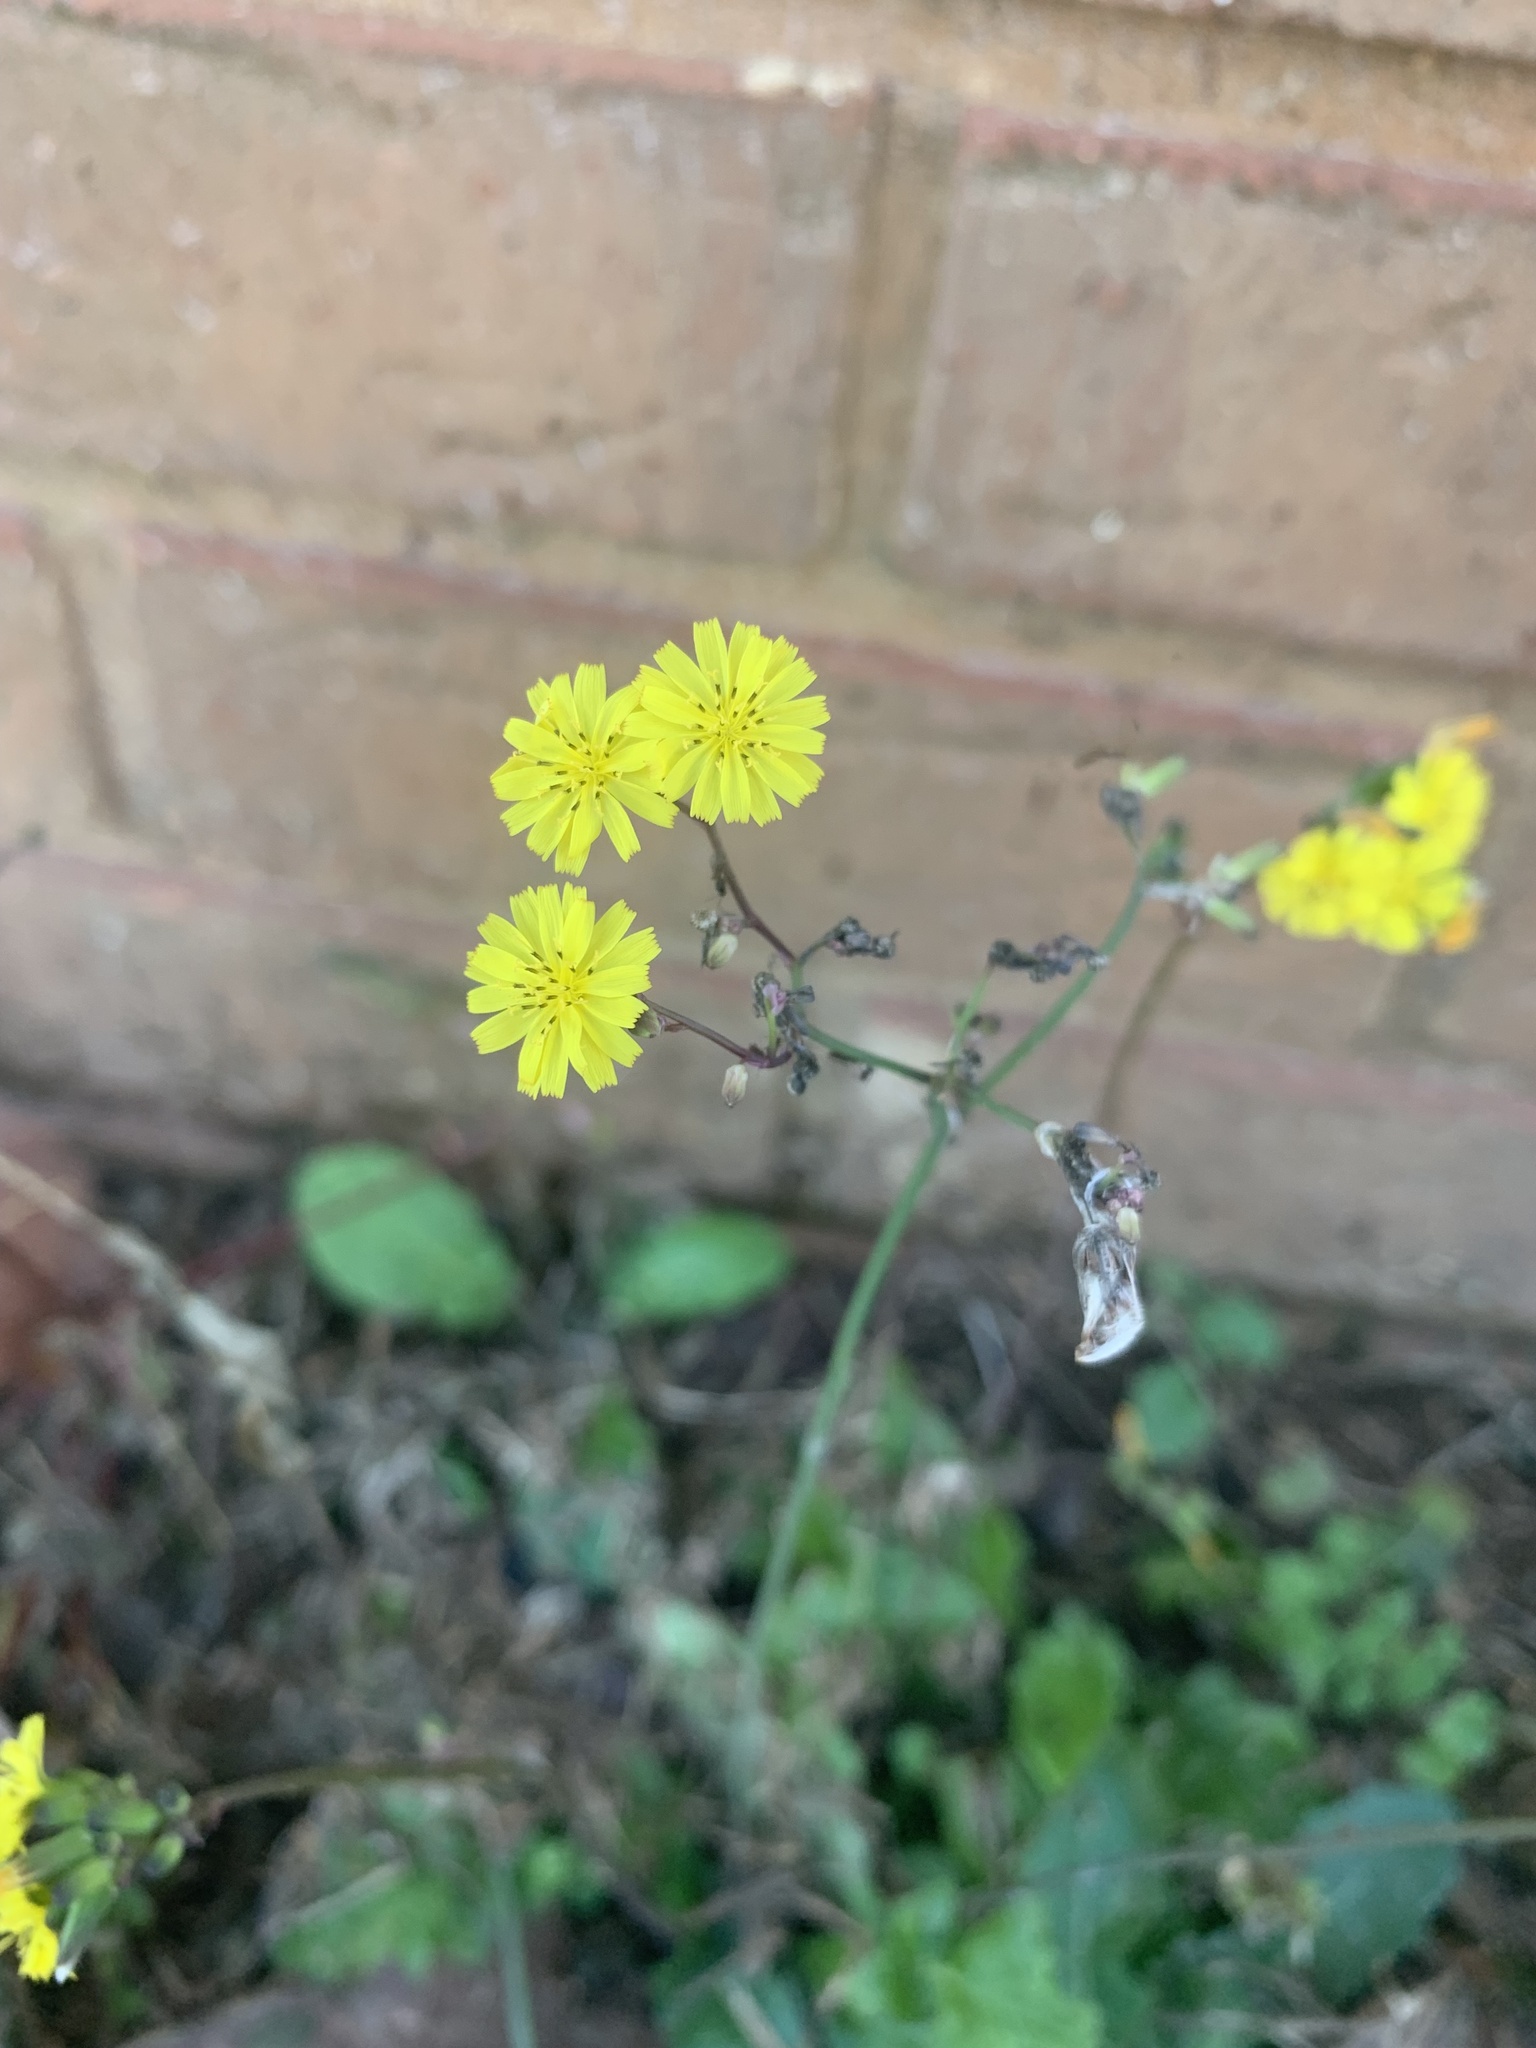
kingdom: Plantae
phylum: Tracheophyta
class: Magnoliopsida
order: Asterales
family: Asteraceae
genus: Youngia
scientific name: Youngia japonica
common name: Oriental false hawksbeard
